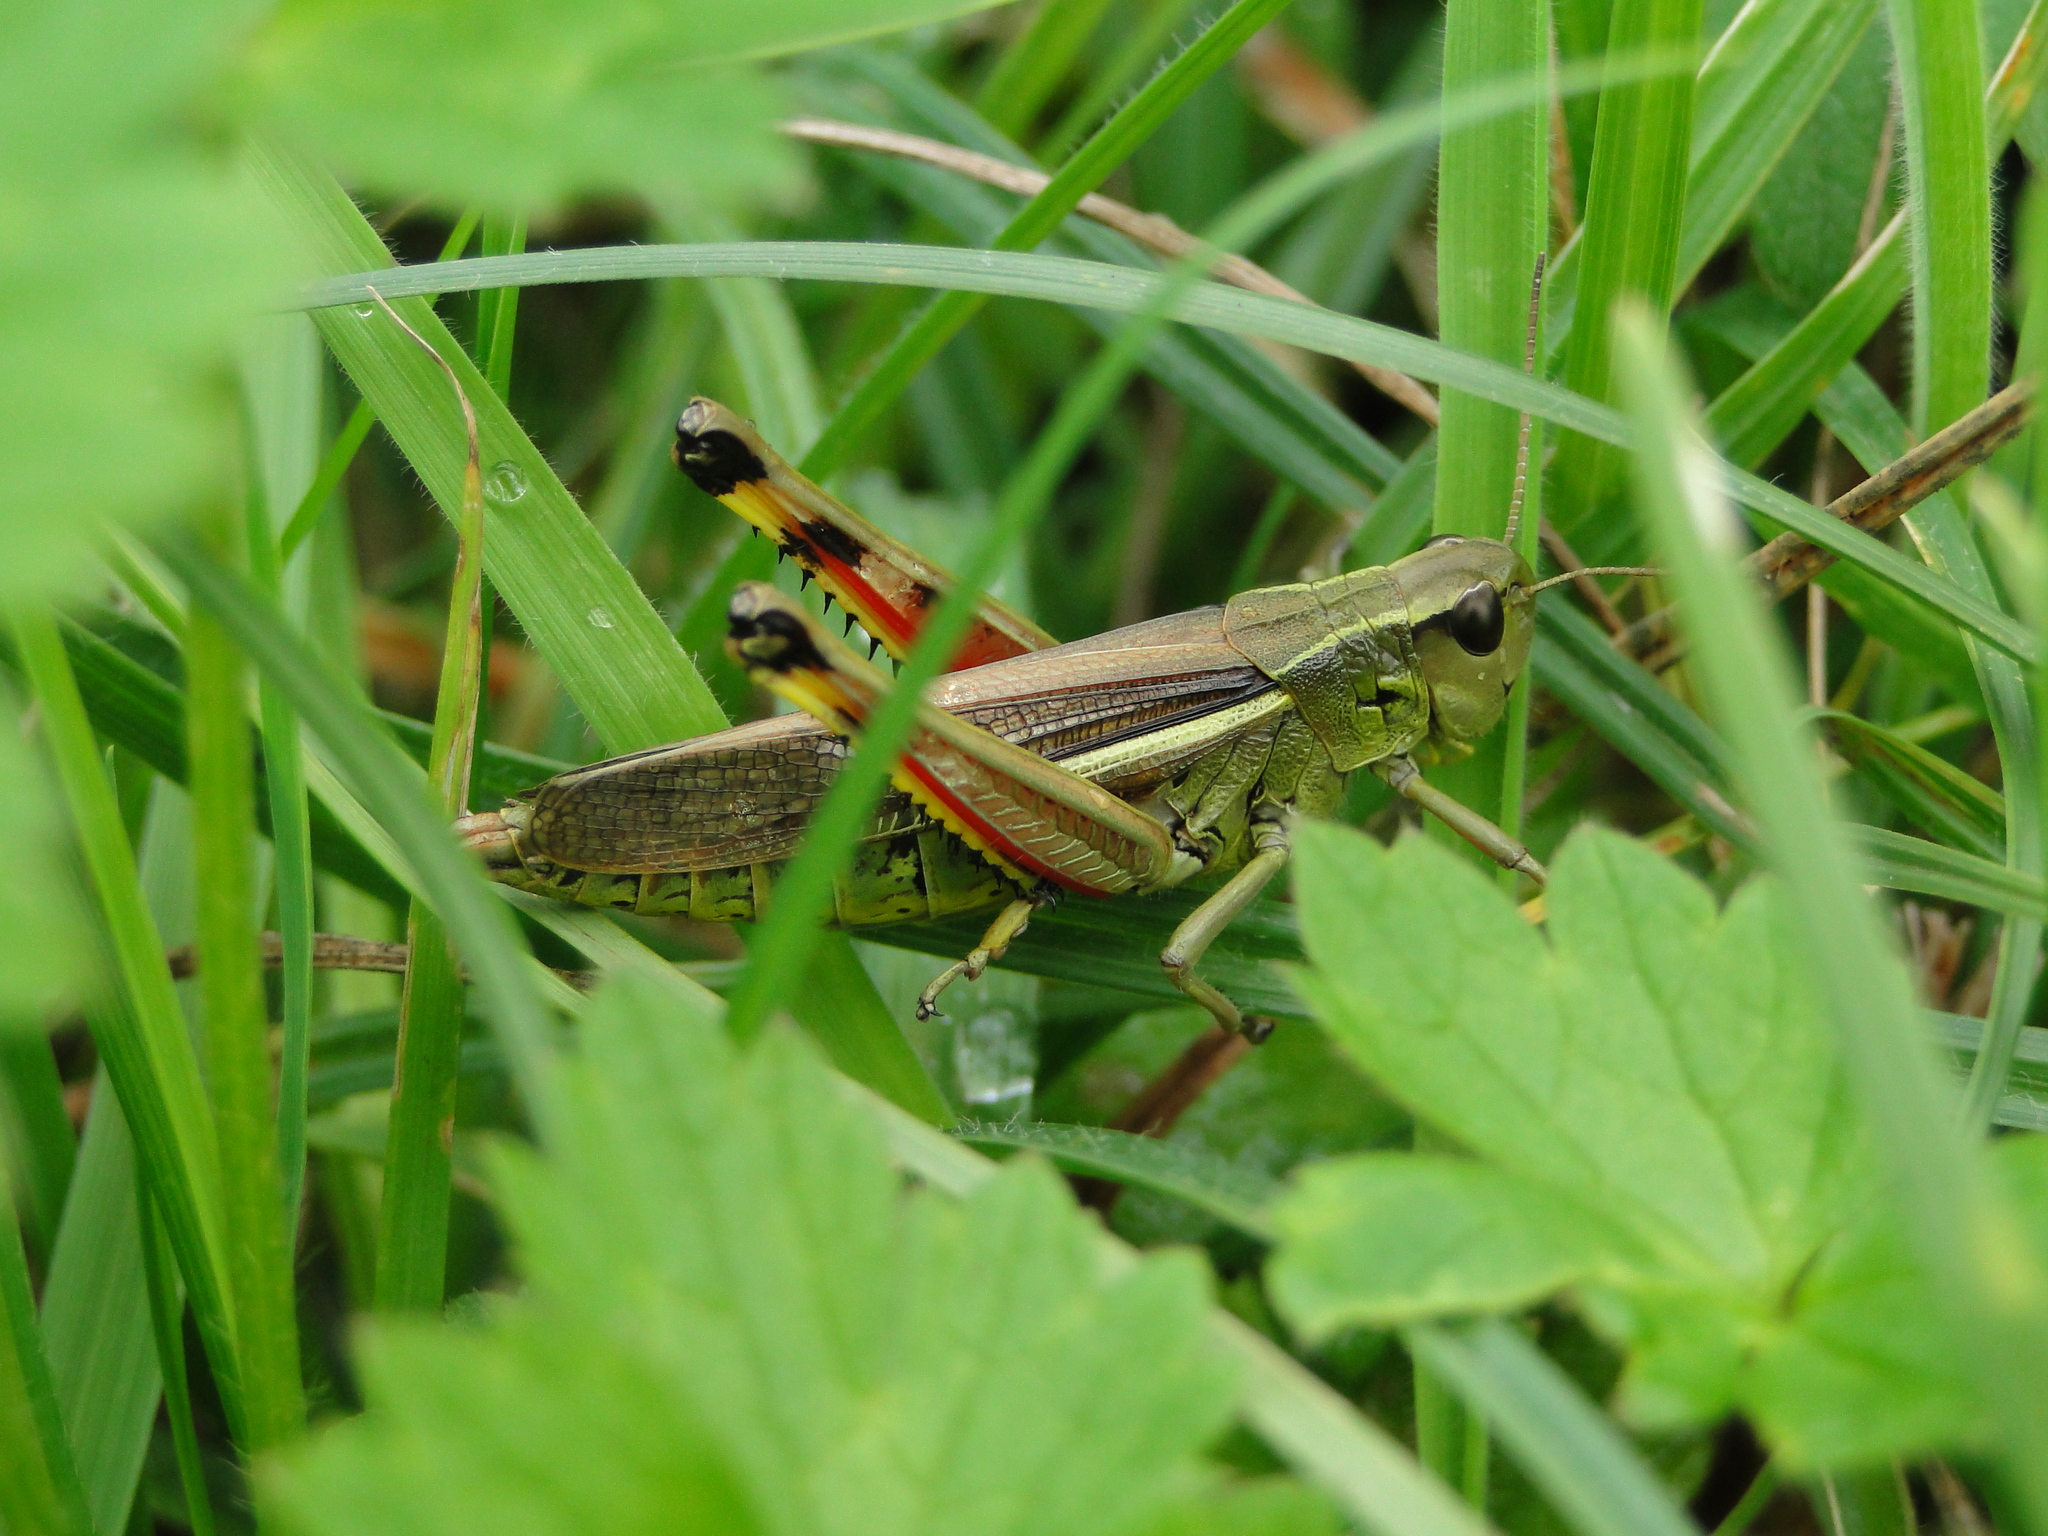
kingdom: Animalia
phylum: Arthropoda
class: Insecta
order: Orthoptera
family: Acrididae
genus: Stethophyma
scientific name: Stethophyma grossum
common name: Large marsh grasshopper
